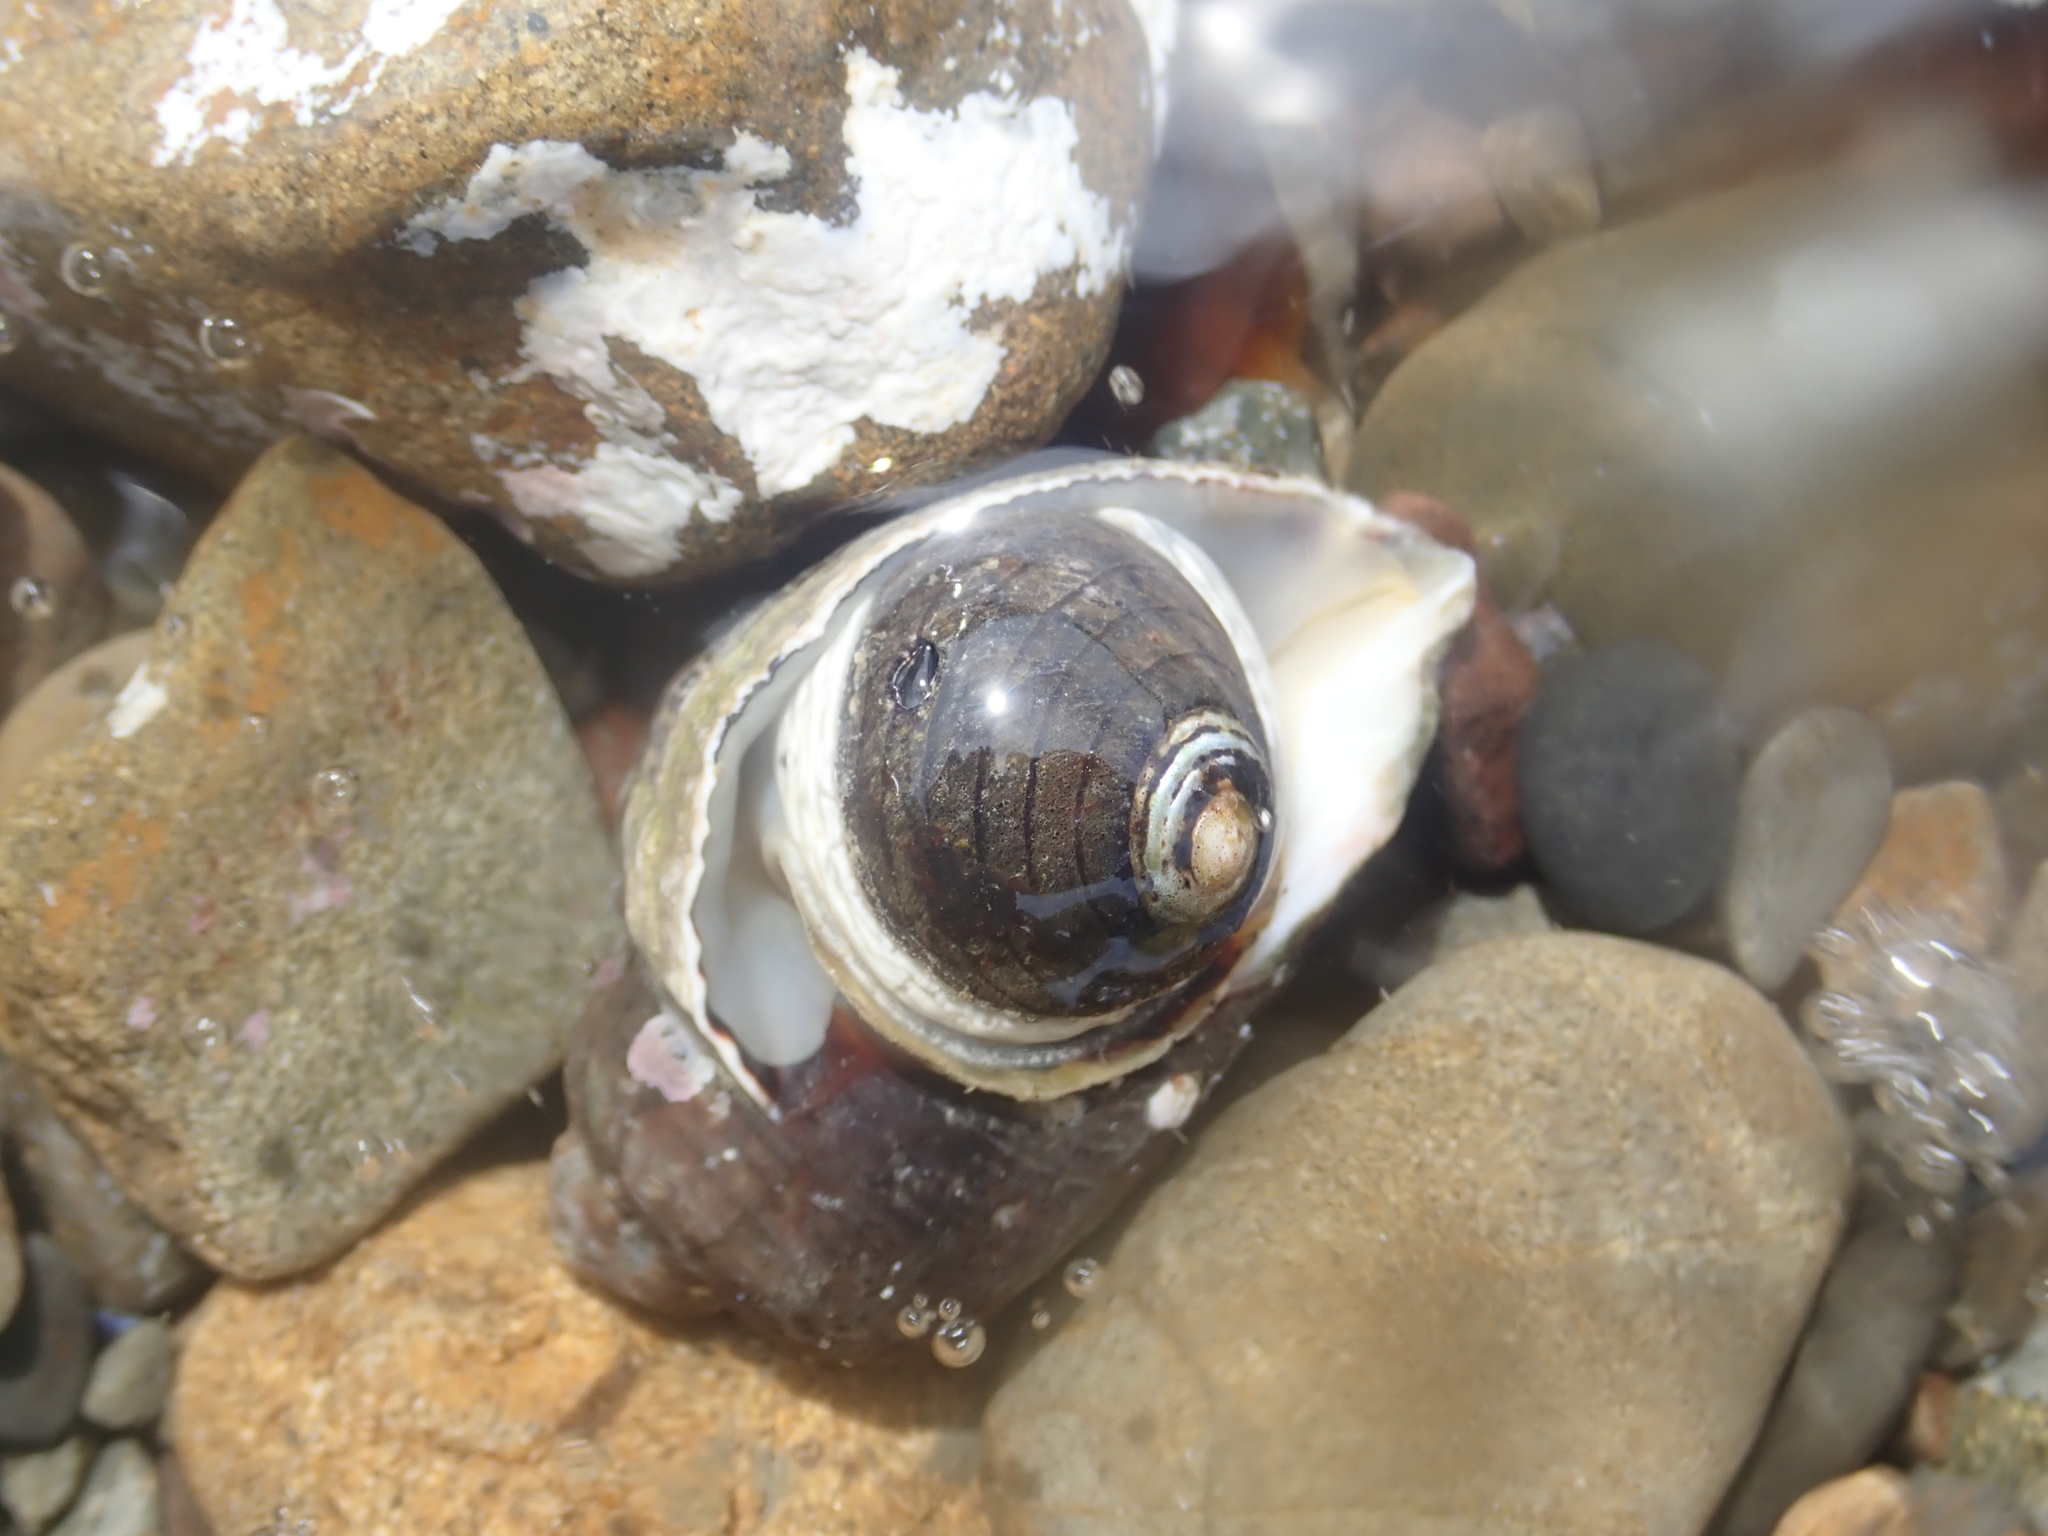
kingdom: Animalia
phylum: Mollusca
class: Gastropoda
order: Trochida
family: Trochidae
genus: Diloma
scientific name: Diloma aethiops
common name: Scorched monodont
